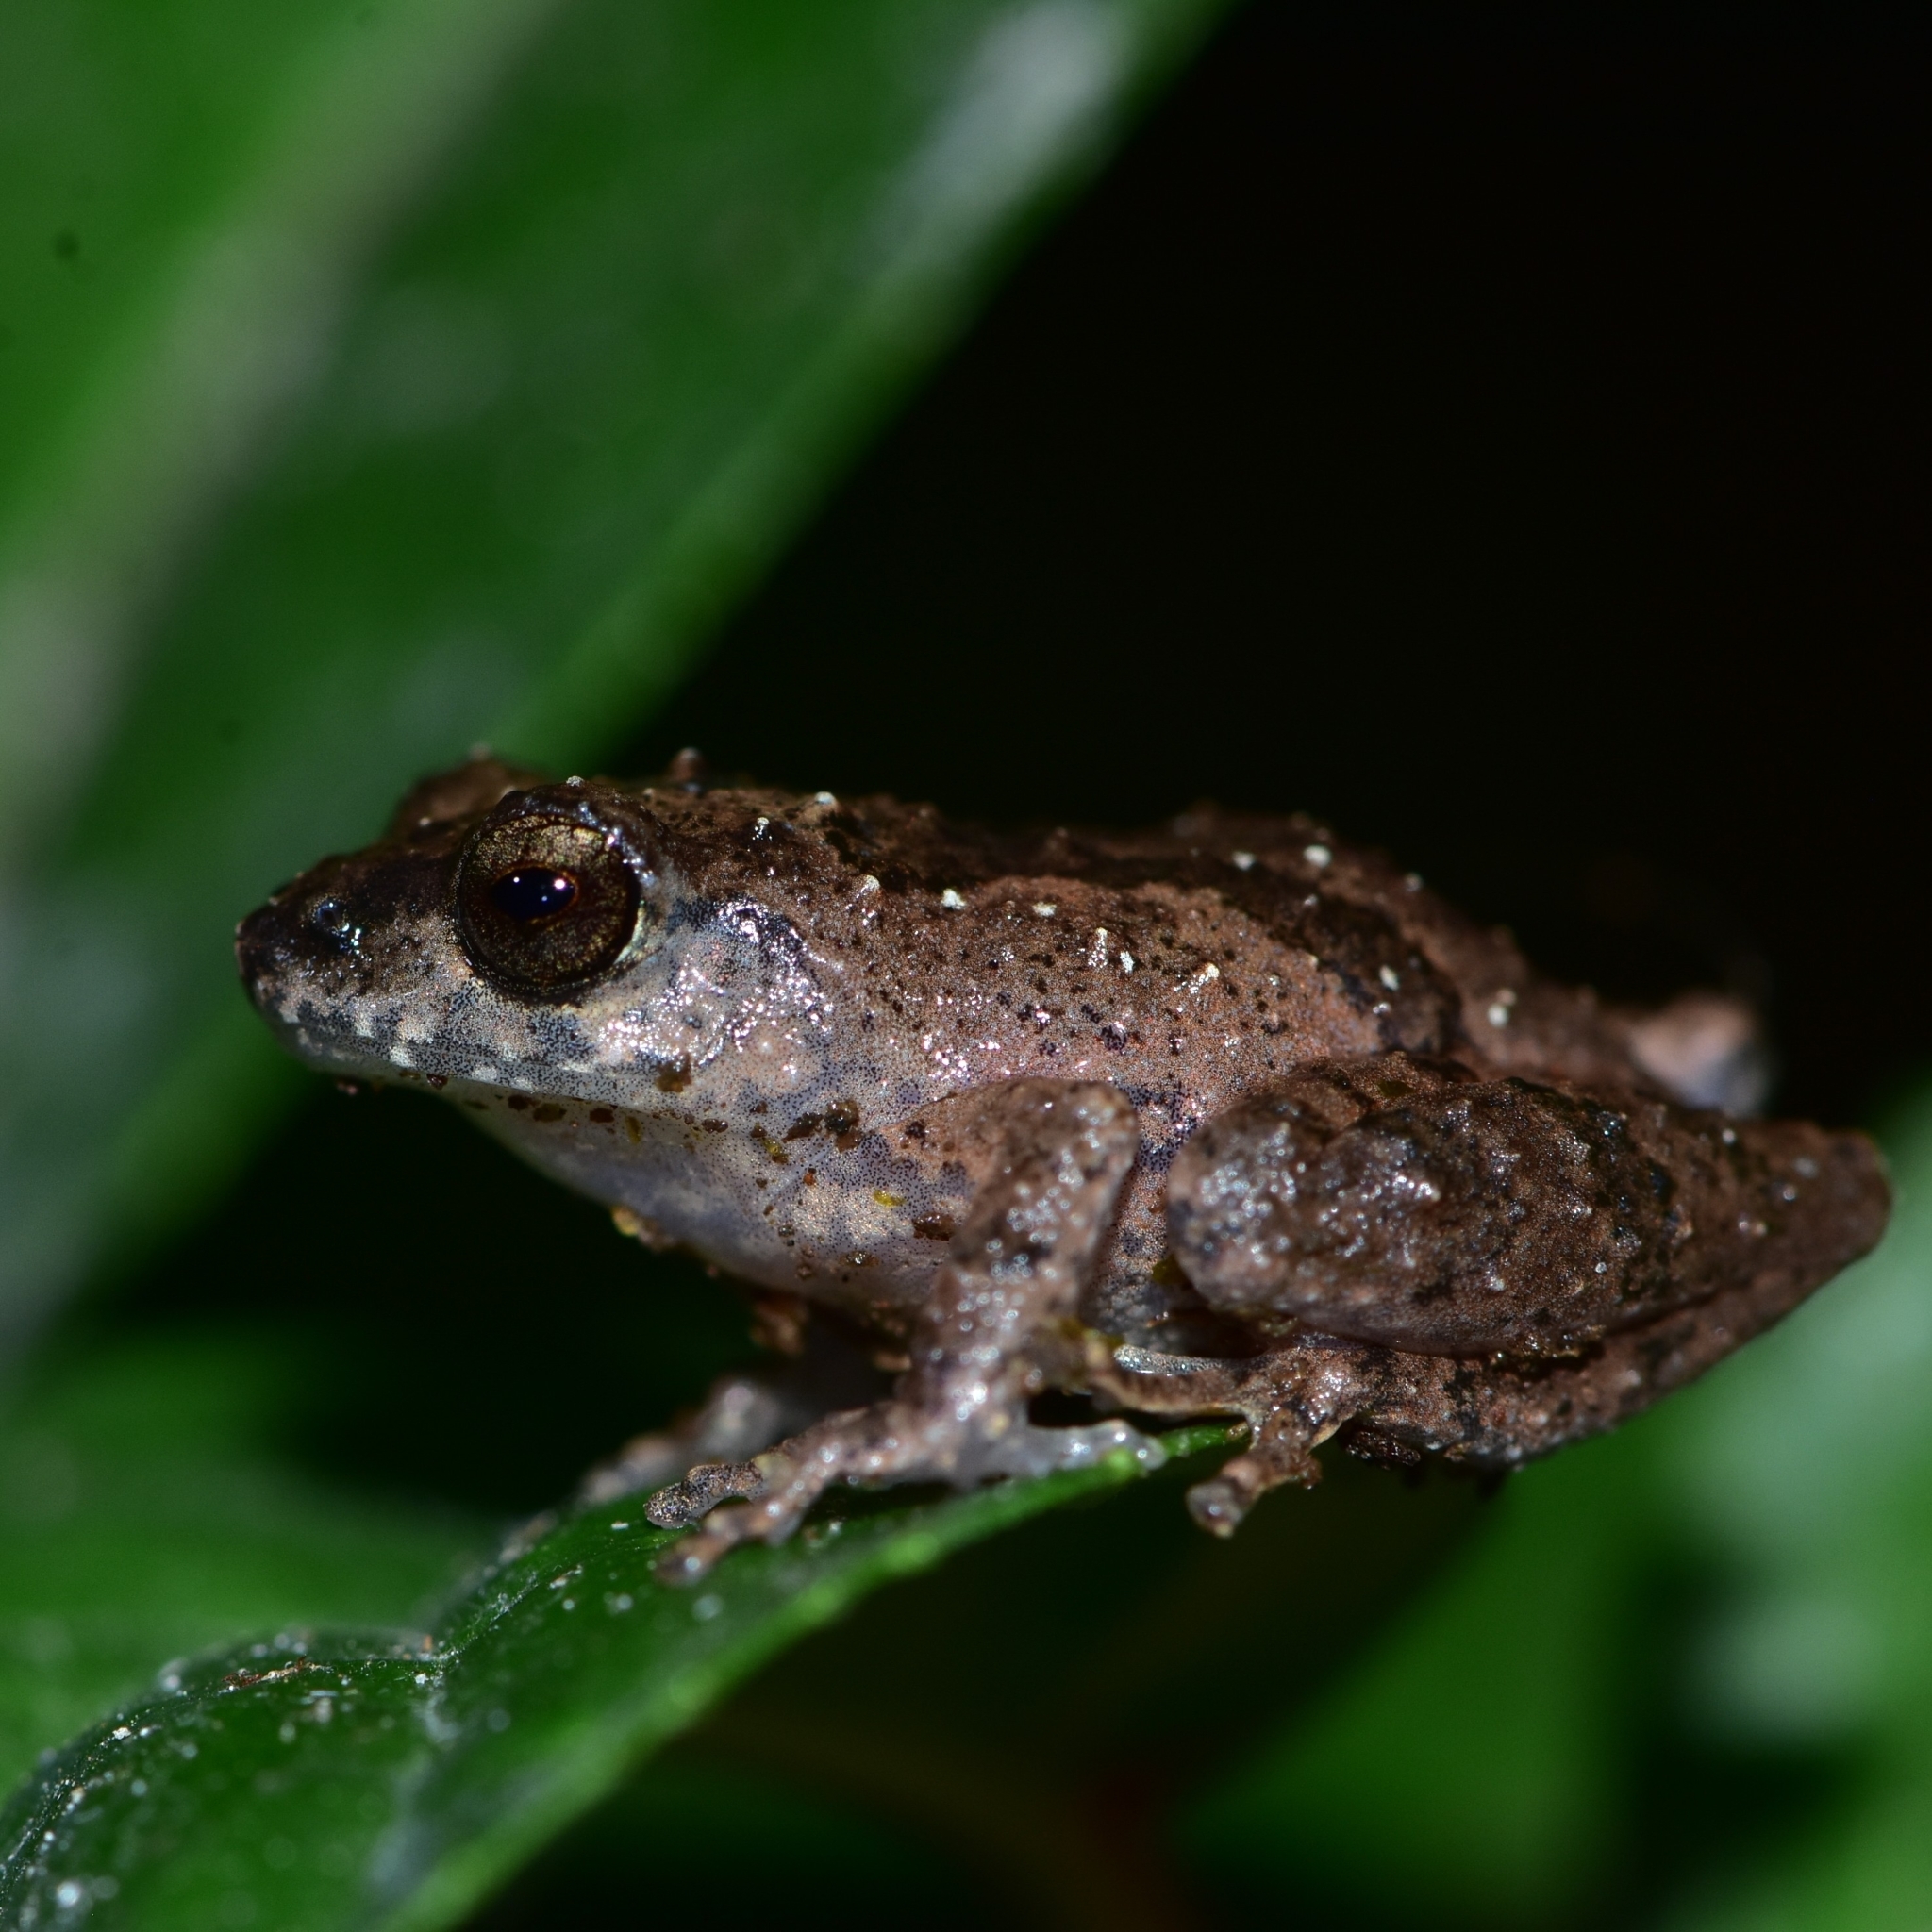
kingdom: Animalia
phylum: Chordata
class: Amphibia
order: Anura
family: Rhacophoridae
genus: Raorchestes
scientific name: Raorchestes blandus
